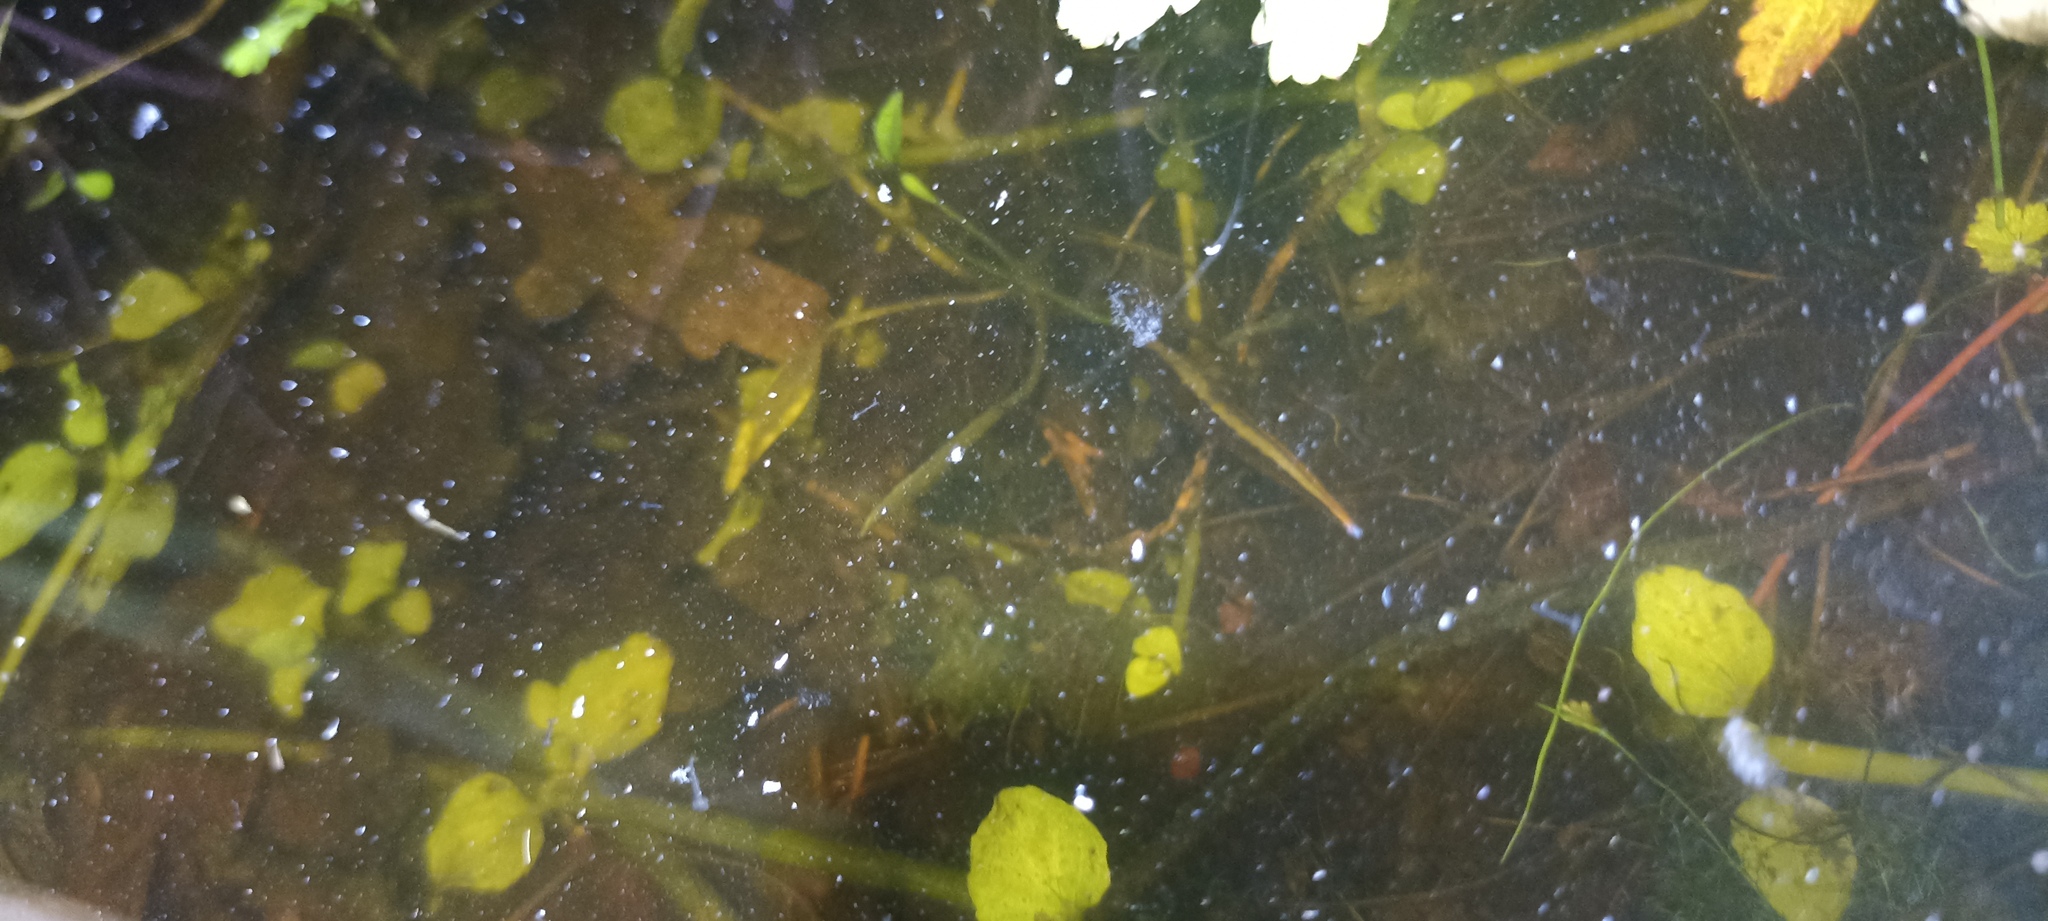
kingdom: Animalia
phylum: Chordata
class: Amphibia
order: Caudata
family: Salamandridae
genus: Triturus
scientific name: Triturus cristatus
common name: Crested newt
